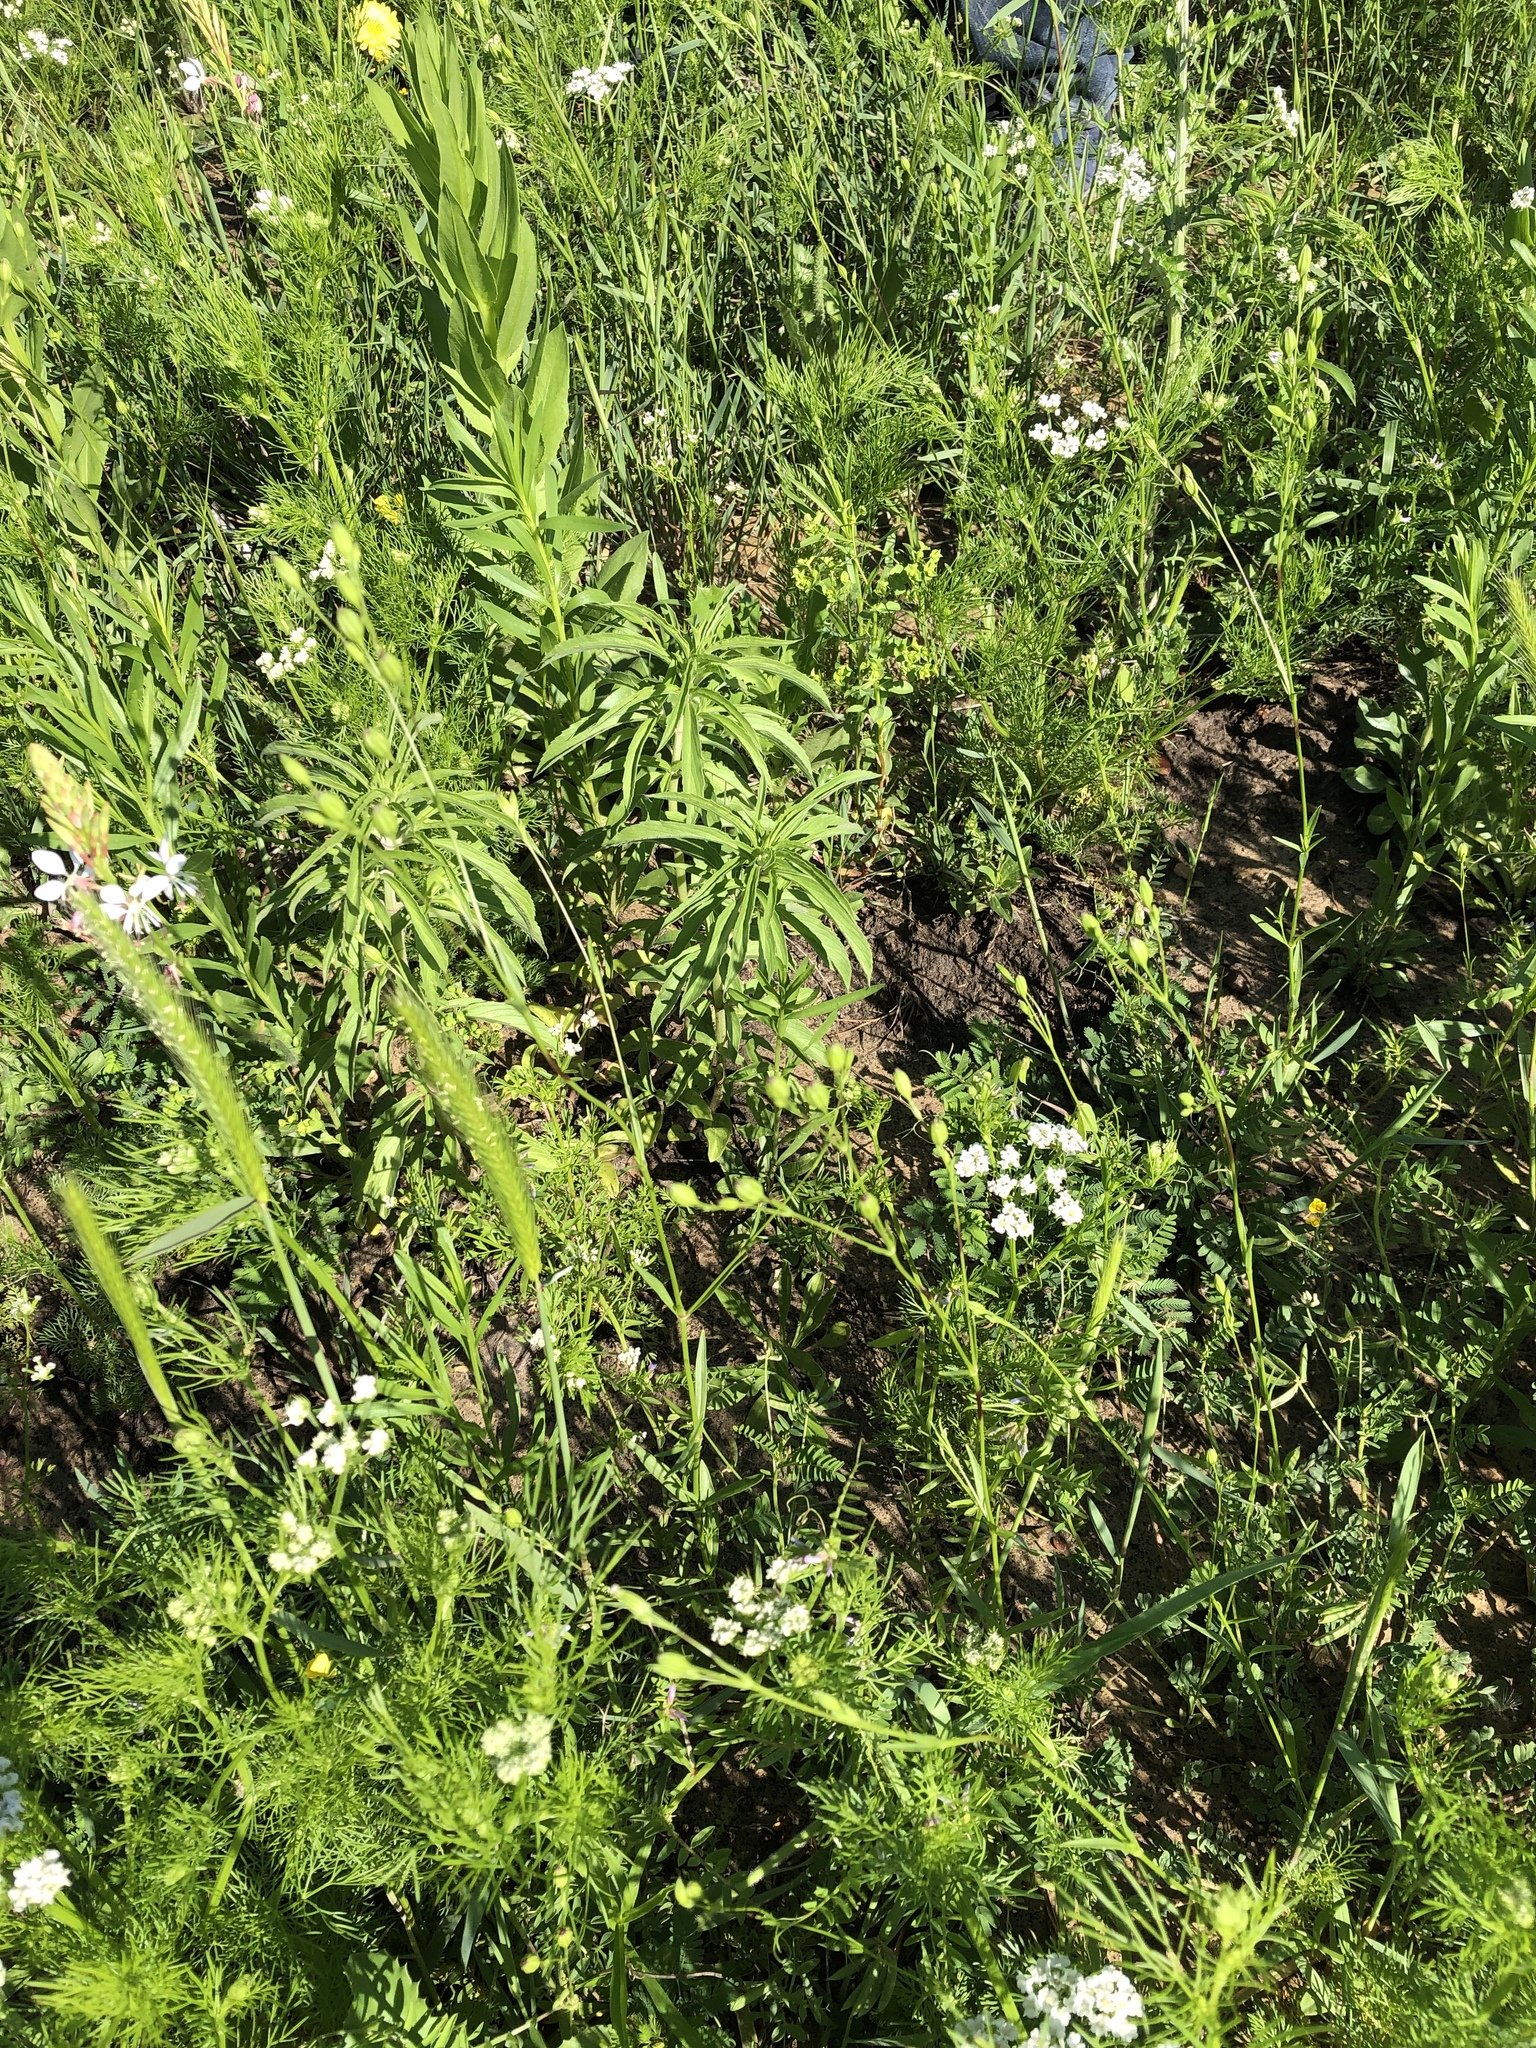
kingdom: Plantae
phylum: Tracheophyta
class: Magnoliopsida
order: Caryophyllales
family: Caryophyllaceae
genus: Silene
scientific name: Silene antirrhina
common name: Sleepy catchfly
